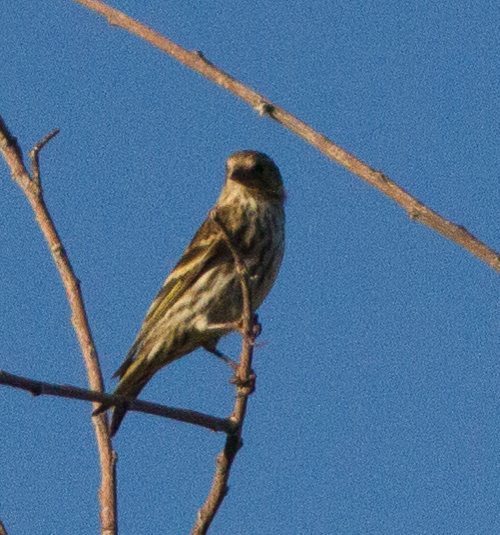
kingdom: Animalia
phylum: Chordata
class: Aves
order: Passeriformes
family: Fringillidae
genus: Spinus
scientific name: Spinus pinus
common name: Pine siskin
